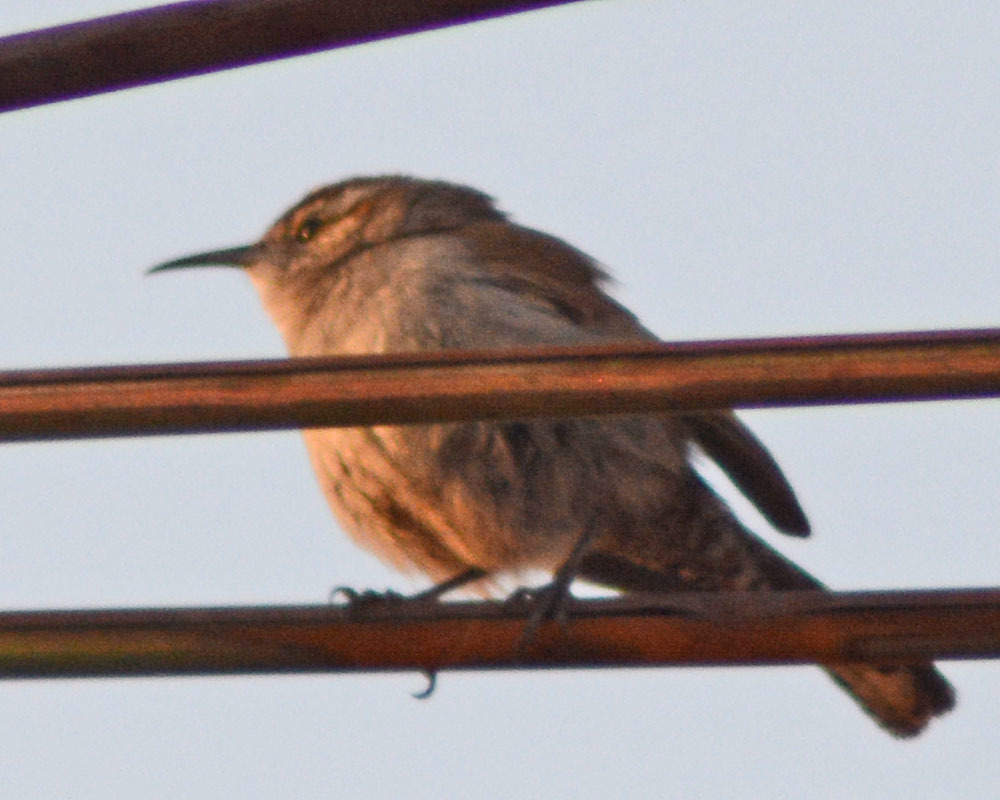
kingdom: Animalia
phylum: Chordata
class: Aves
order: Passeriformes
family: Troglodytidae
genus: Thryomanes
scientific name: Thryomanes bewickii
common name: Bewick's wren
